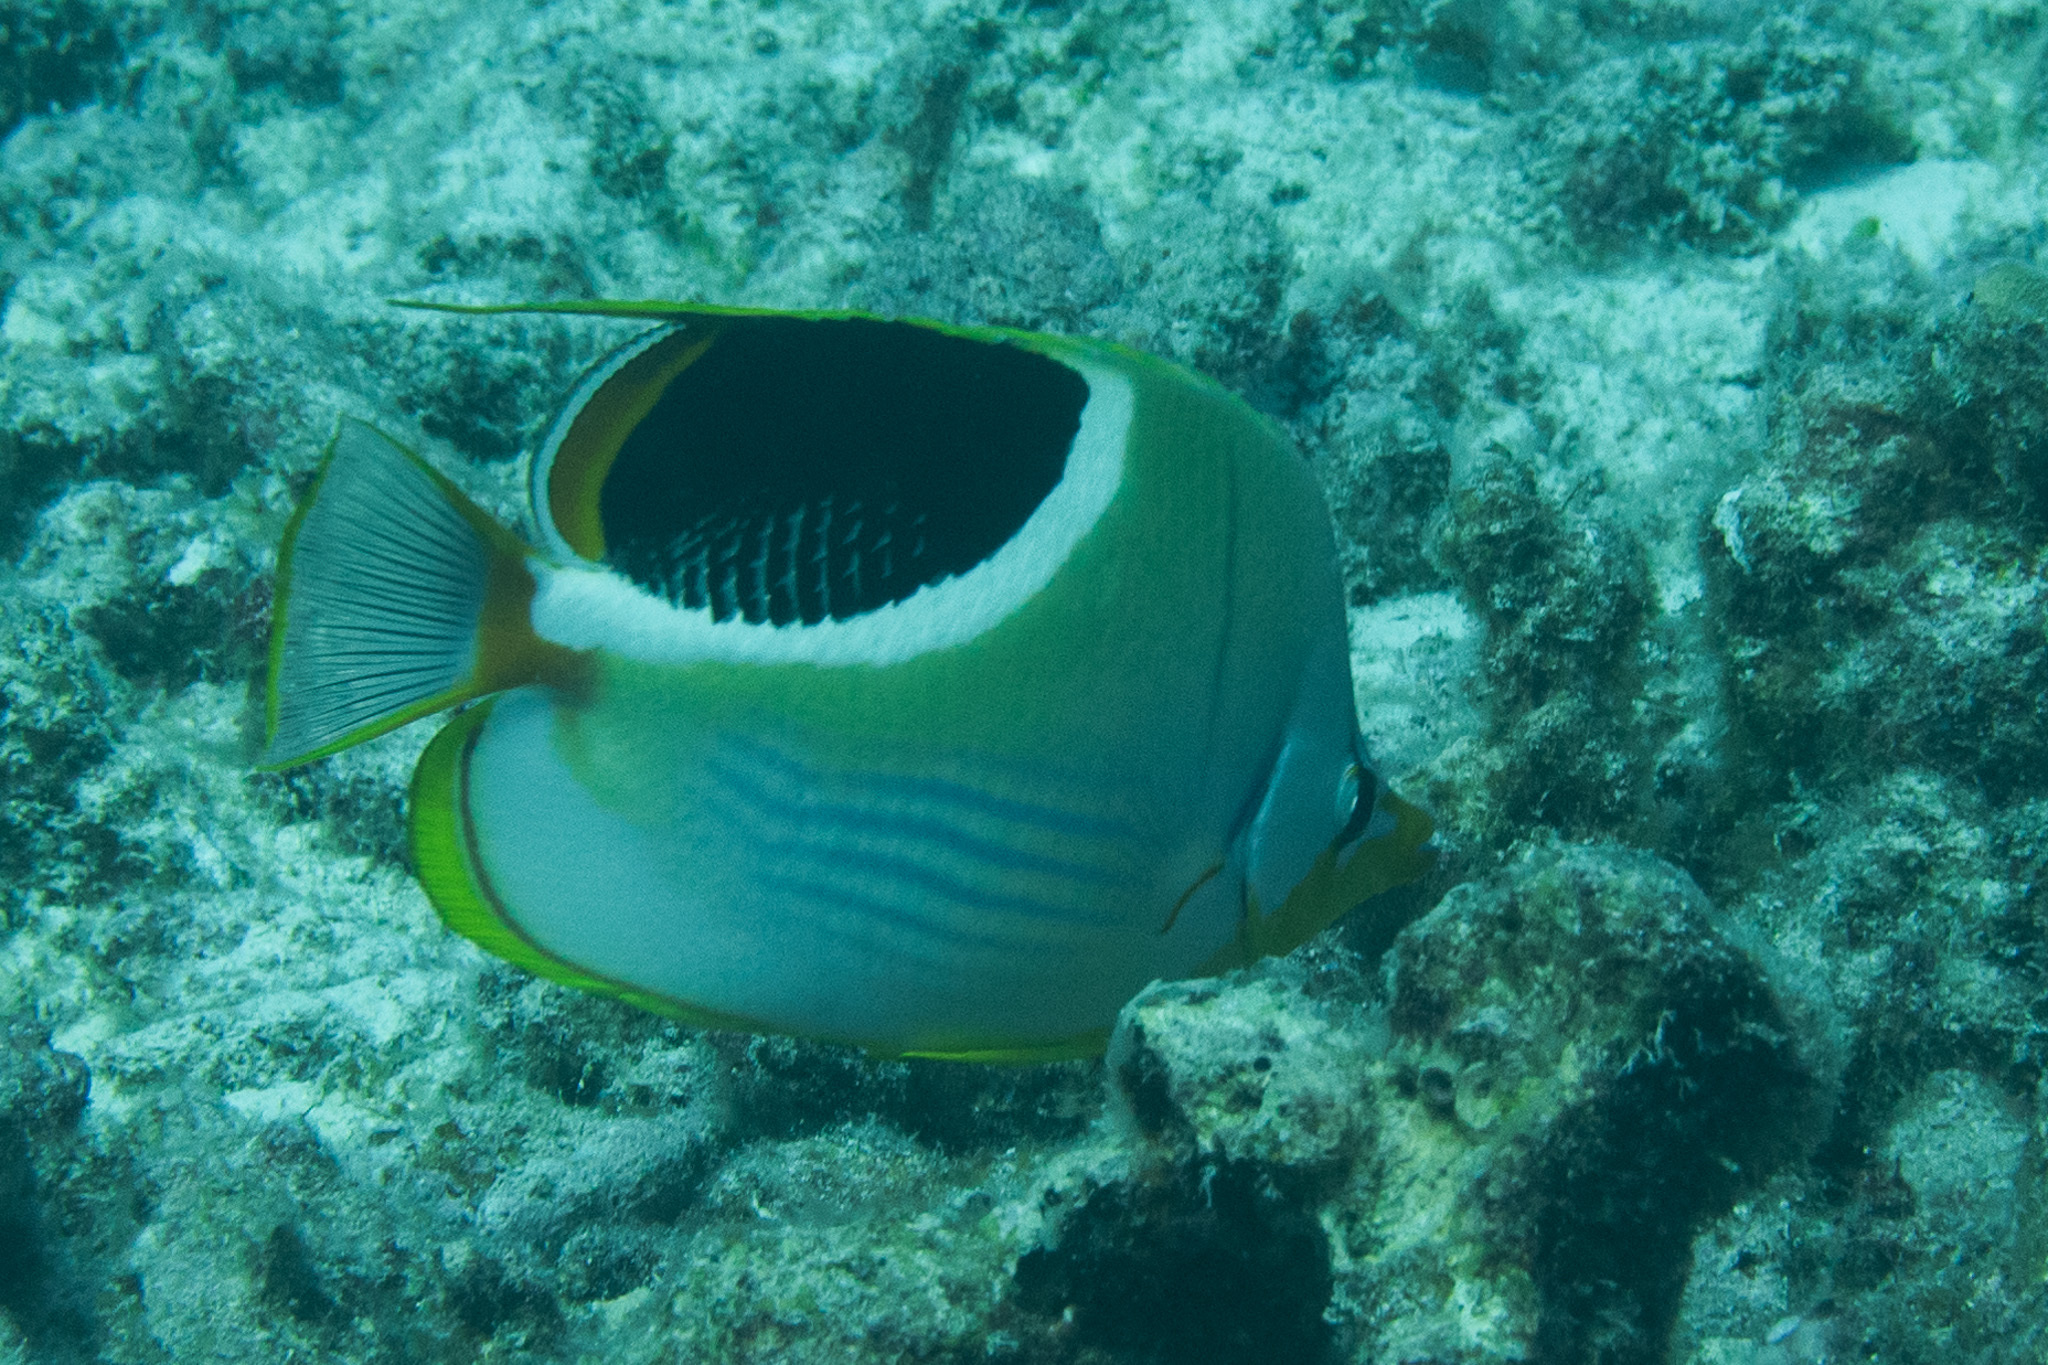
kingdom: Animalia
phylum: Chordata
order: Perciformes
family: Chaetodontidae
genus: Chaetodon
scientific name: Chaetodon ephippium
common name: Saddled butterflyfish
